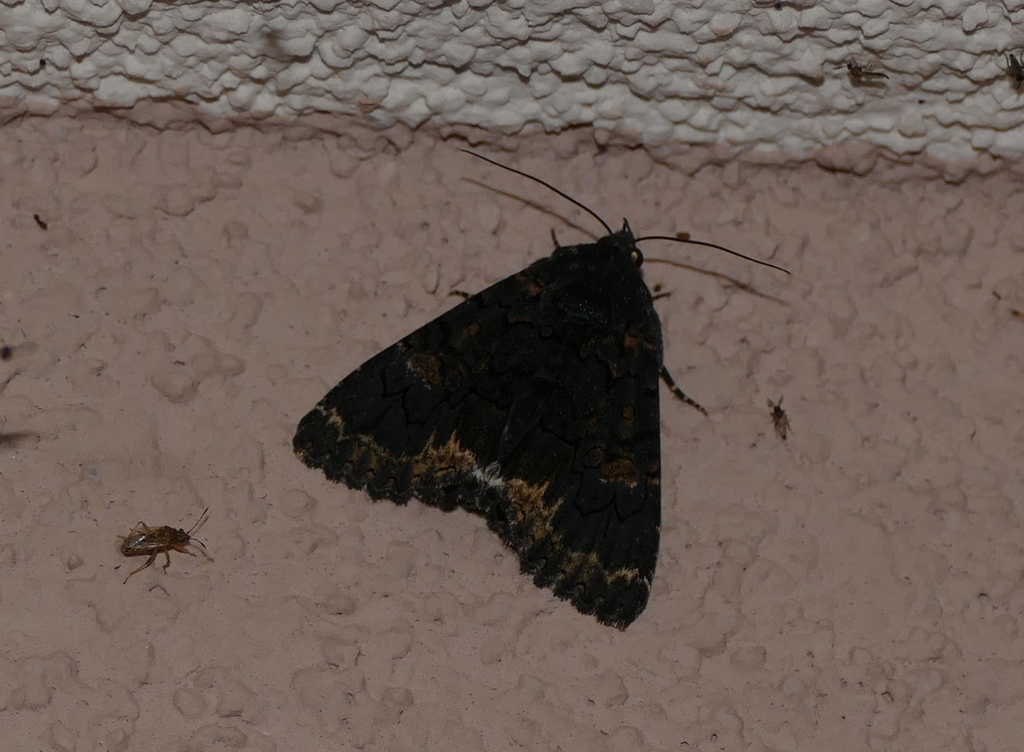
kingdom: Animalia
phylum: Arthropoda
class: Insecta
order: Lepidoptera
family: Erebidae
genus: Catephia
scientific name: Catephia alchymista
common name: Alchymist
